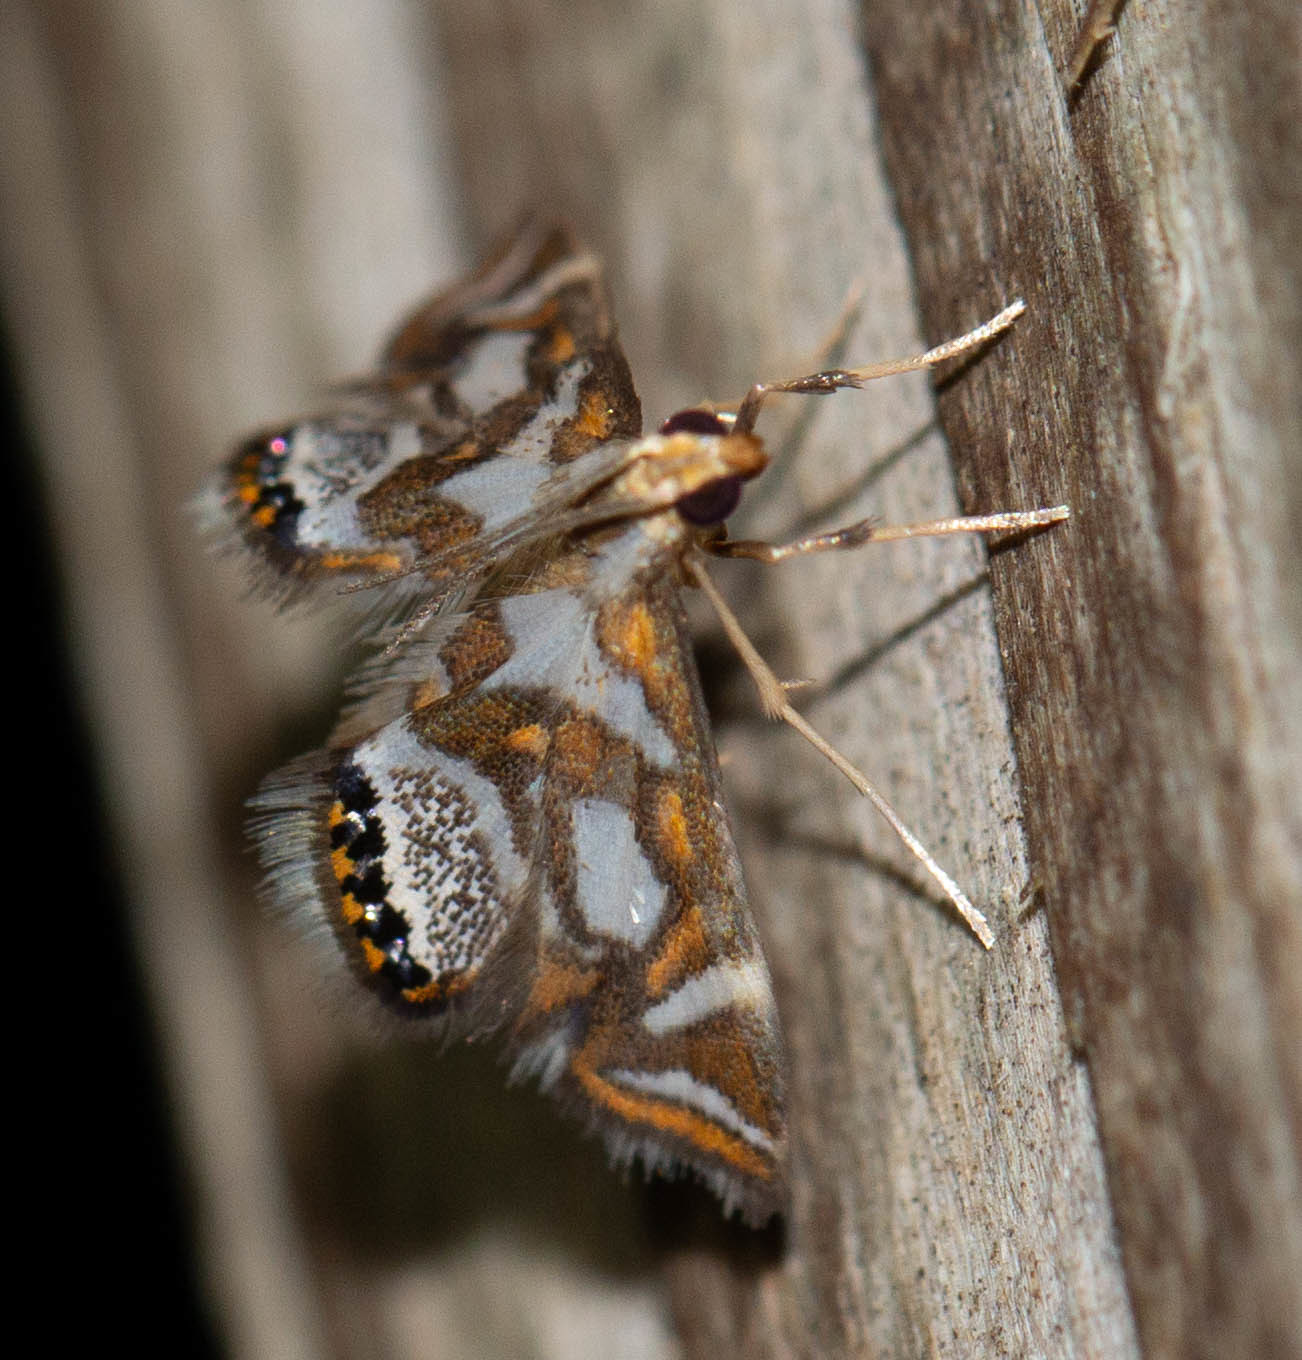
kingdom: Animalia
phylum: Arthropoda
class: Insecta
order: Lepidoptera
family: Crambidae
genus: Chrysendeton
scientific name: Chrysendeton medicinalis
